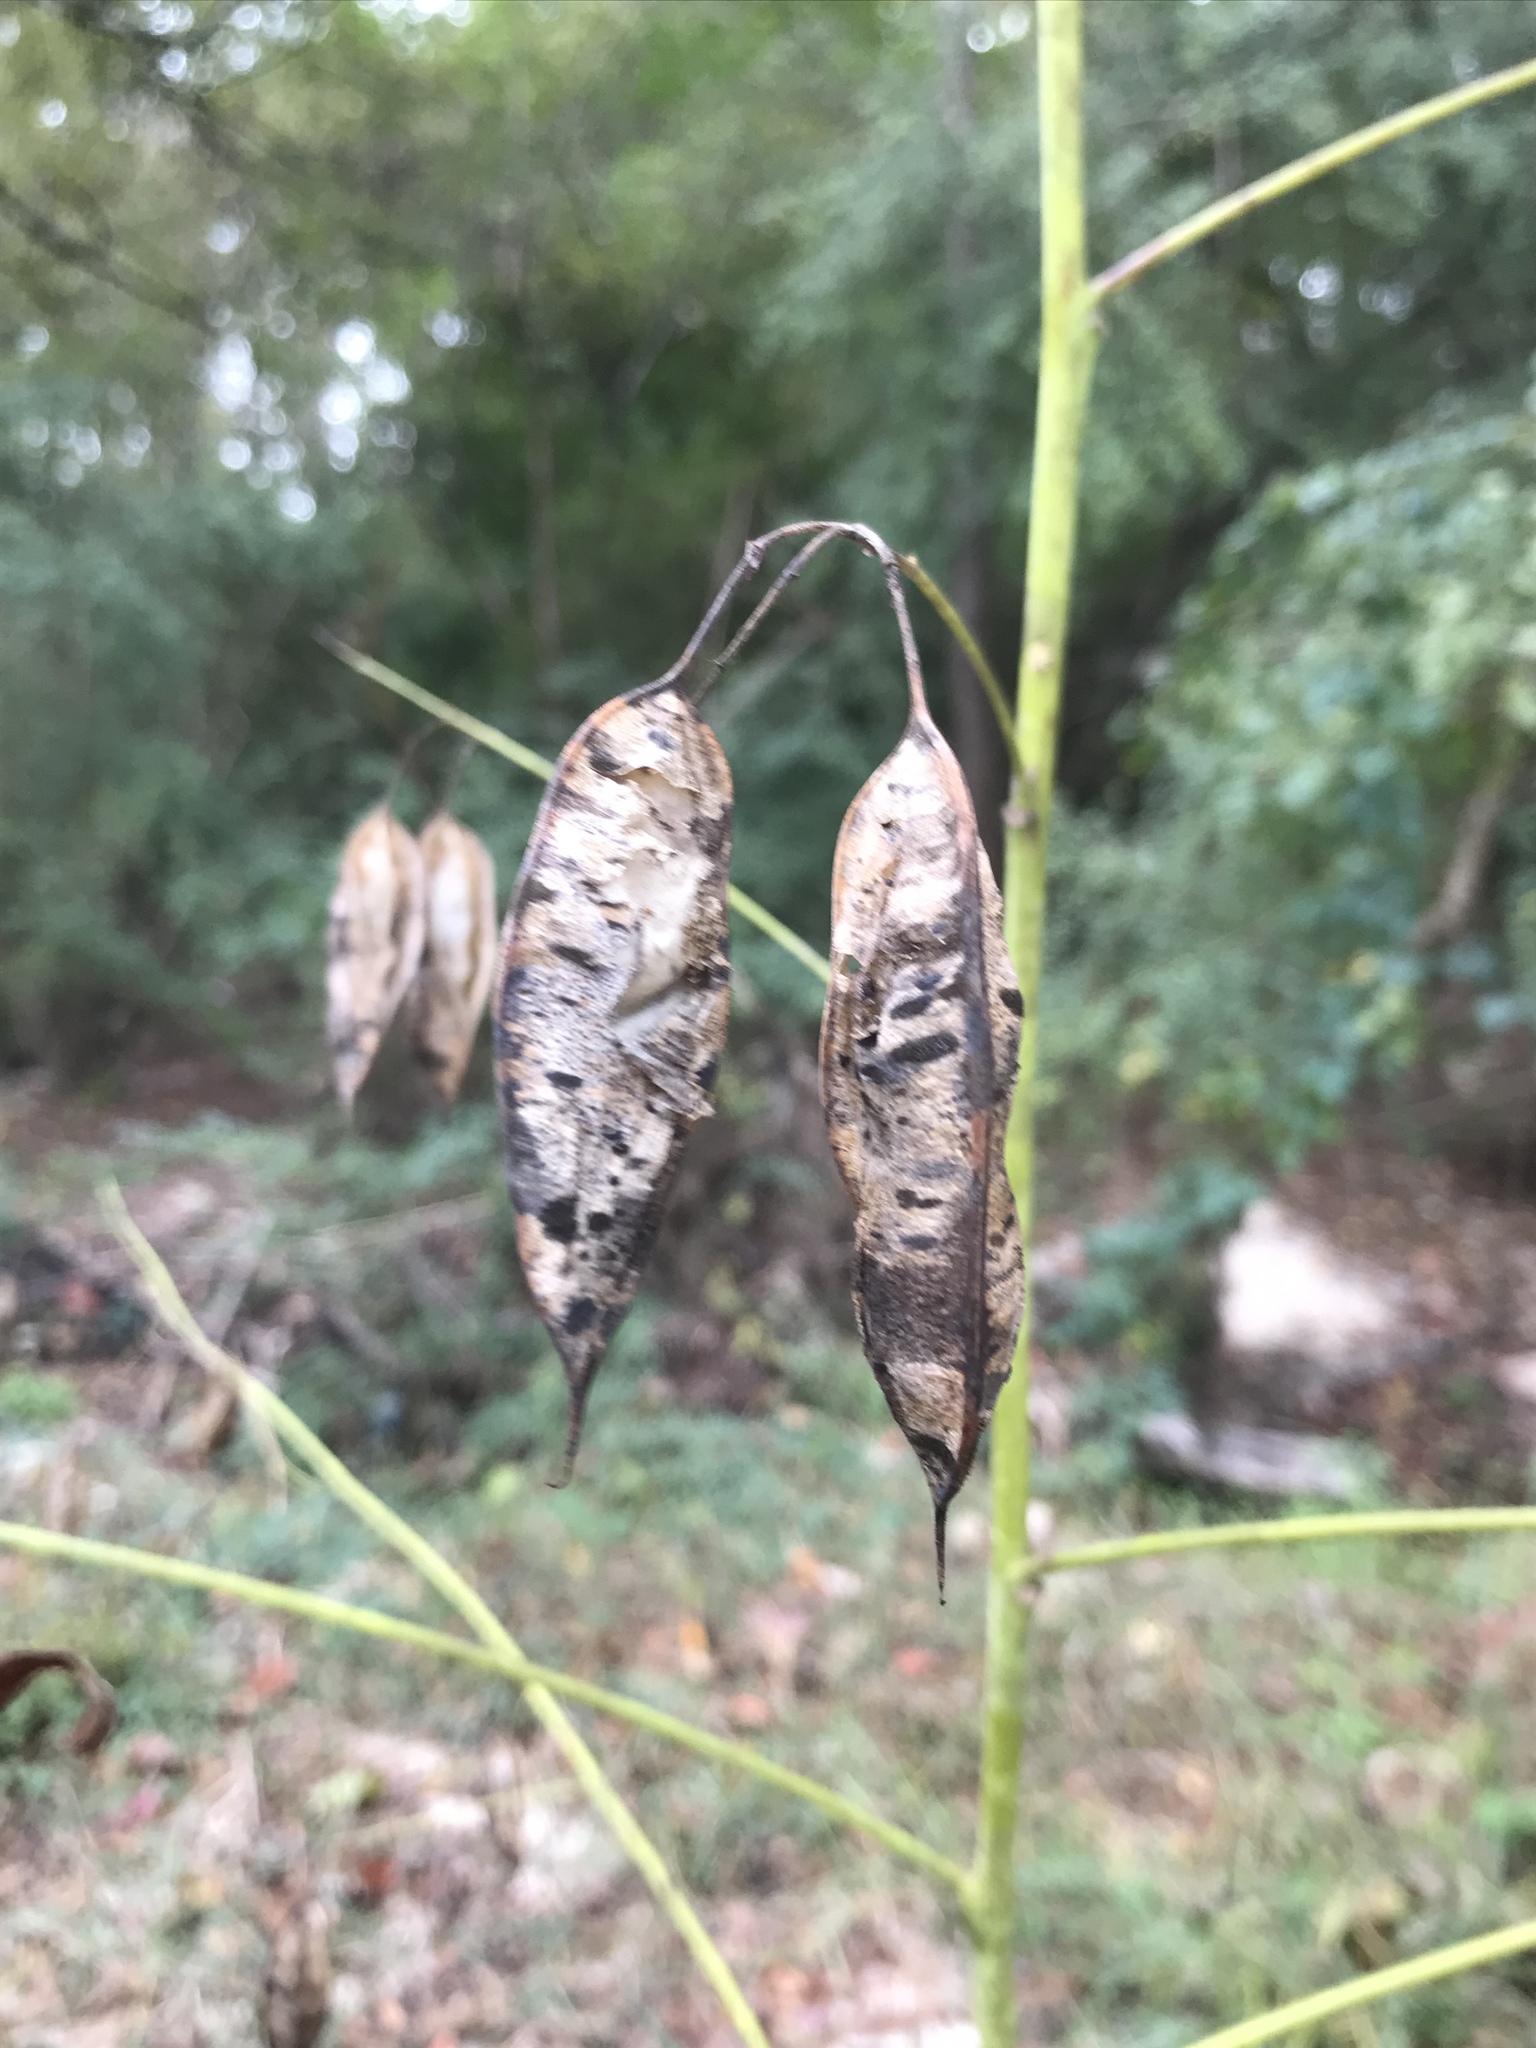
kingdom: Plantae
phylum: Tracheophyta
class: Magnoliopsida
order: Fabales
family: Fabaceae
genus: Sesbania
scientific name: Sesbania vesicaria
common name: Bagpod
